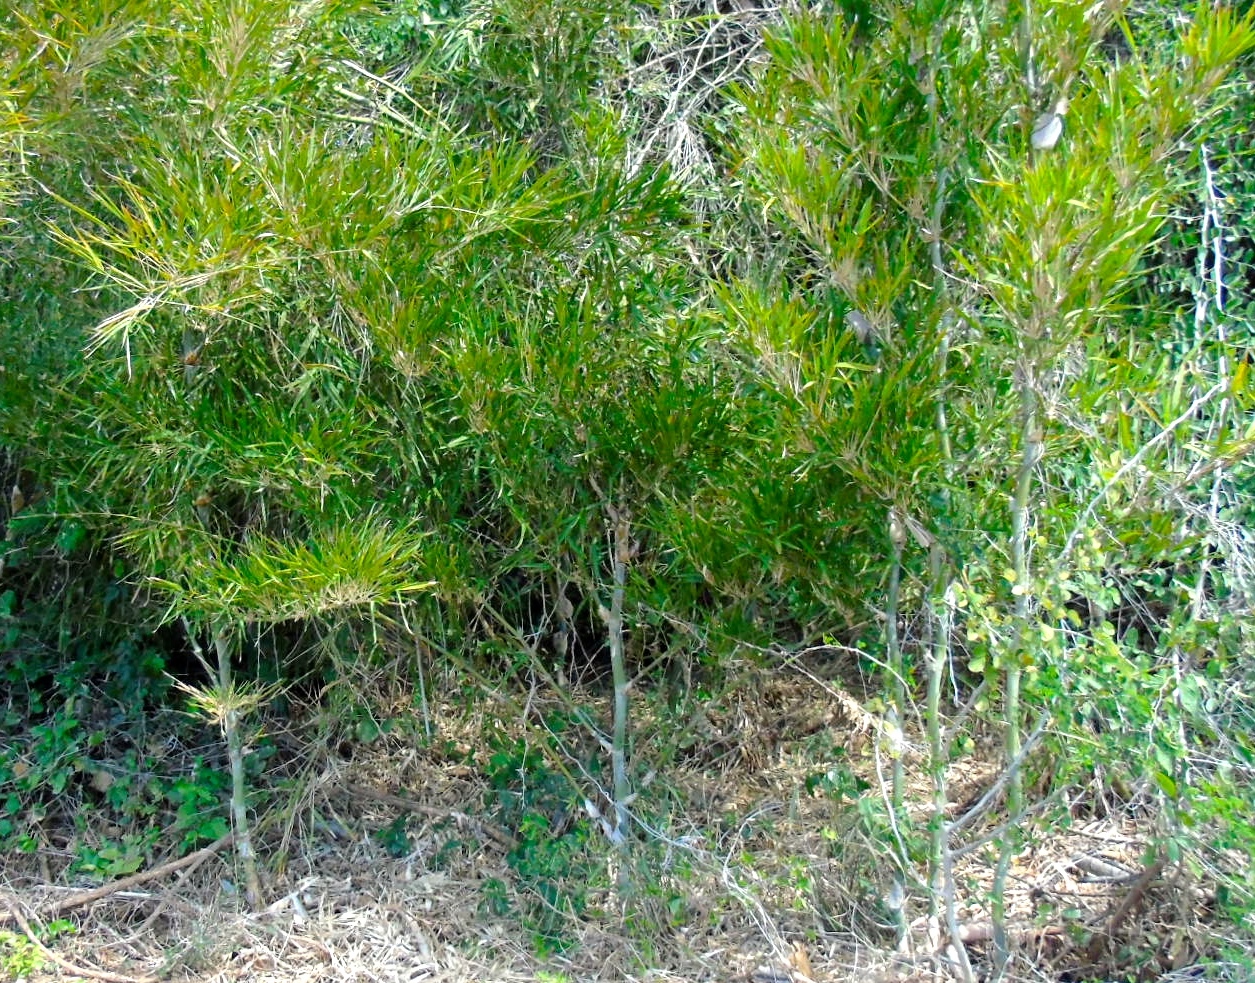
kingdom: Plantae
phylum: Tracheophyta
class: Liliopsida
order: Poales
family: Poaceae
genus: Guadua
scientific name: Guadua paniculata
